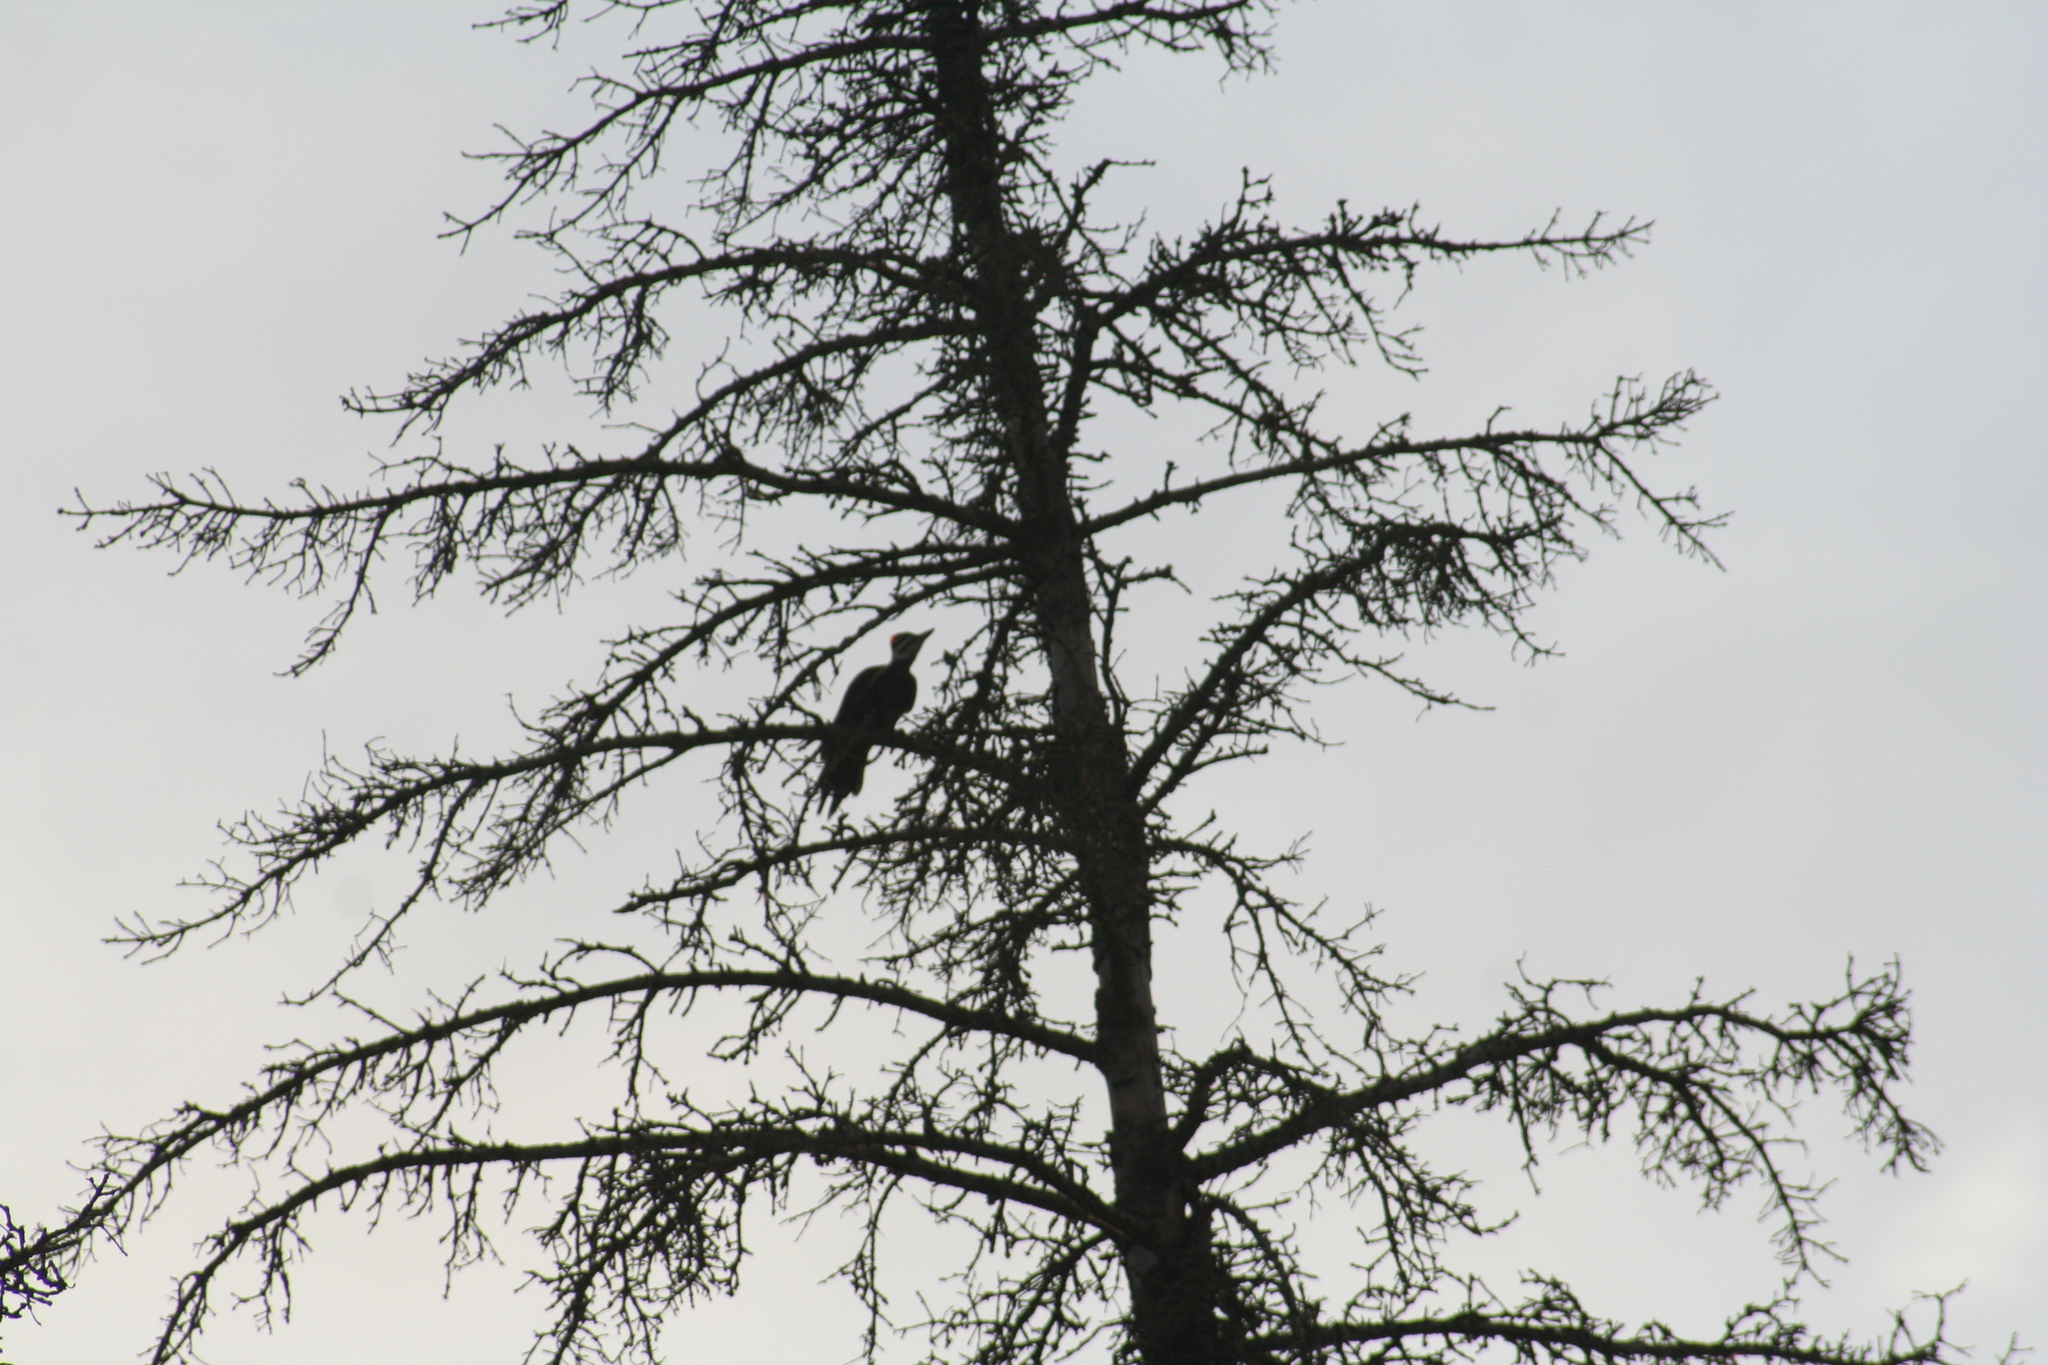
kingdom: Animalia
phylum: Chordata
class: Aves
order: Piciformes
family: Picidae
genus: Dryocopus
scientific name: Dryocopus pileatus
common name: Pileated woodpecker
